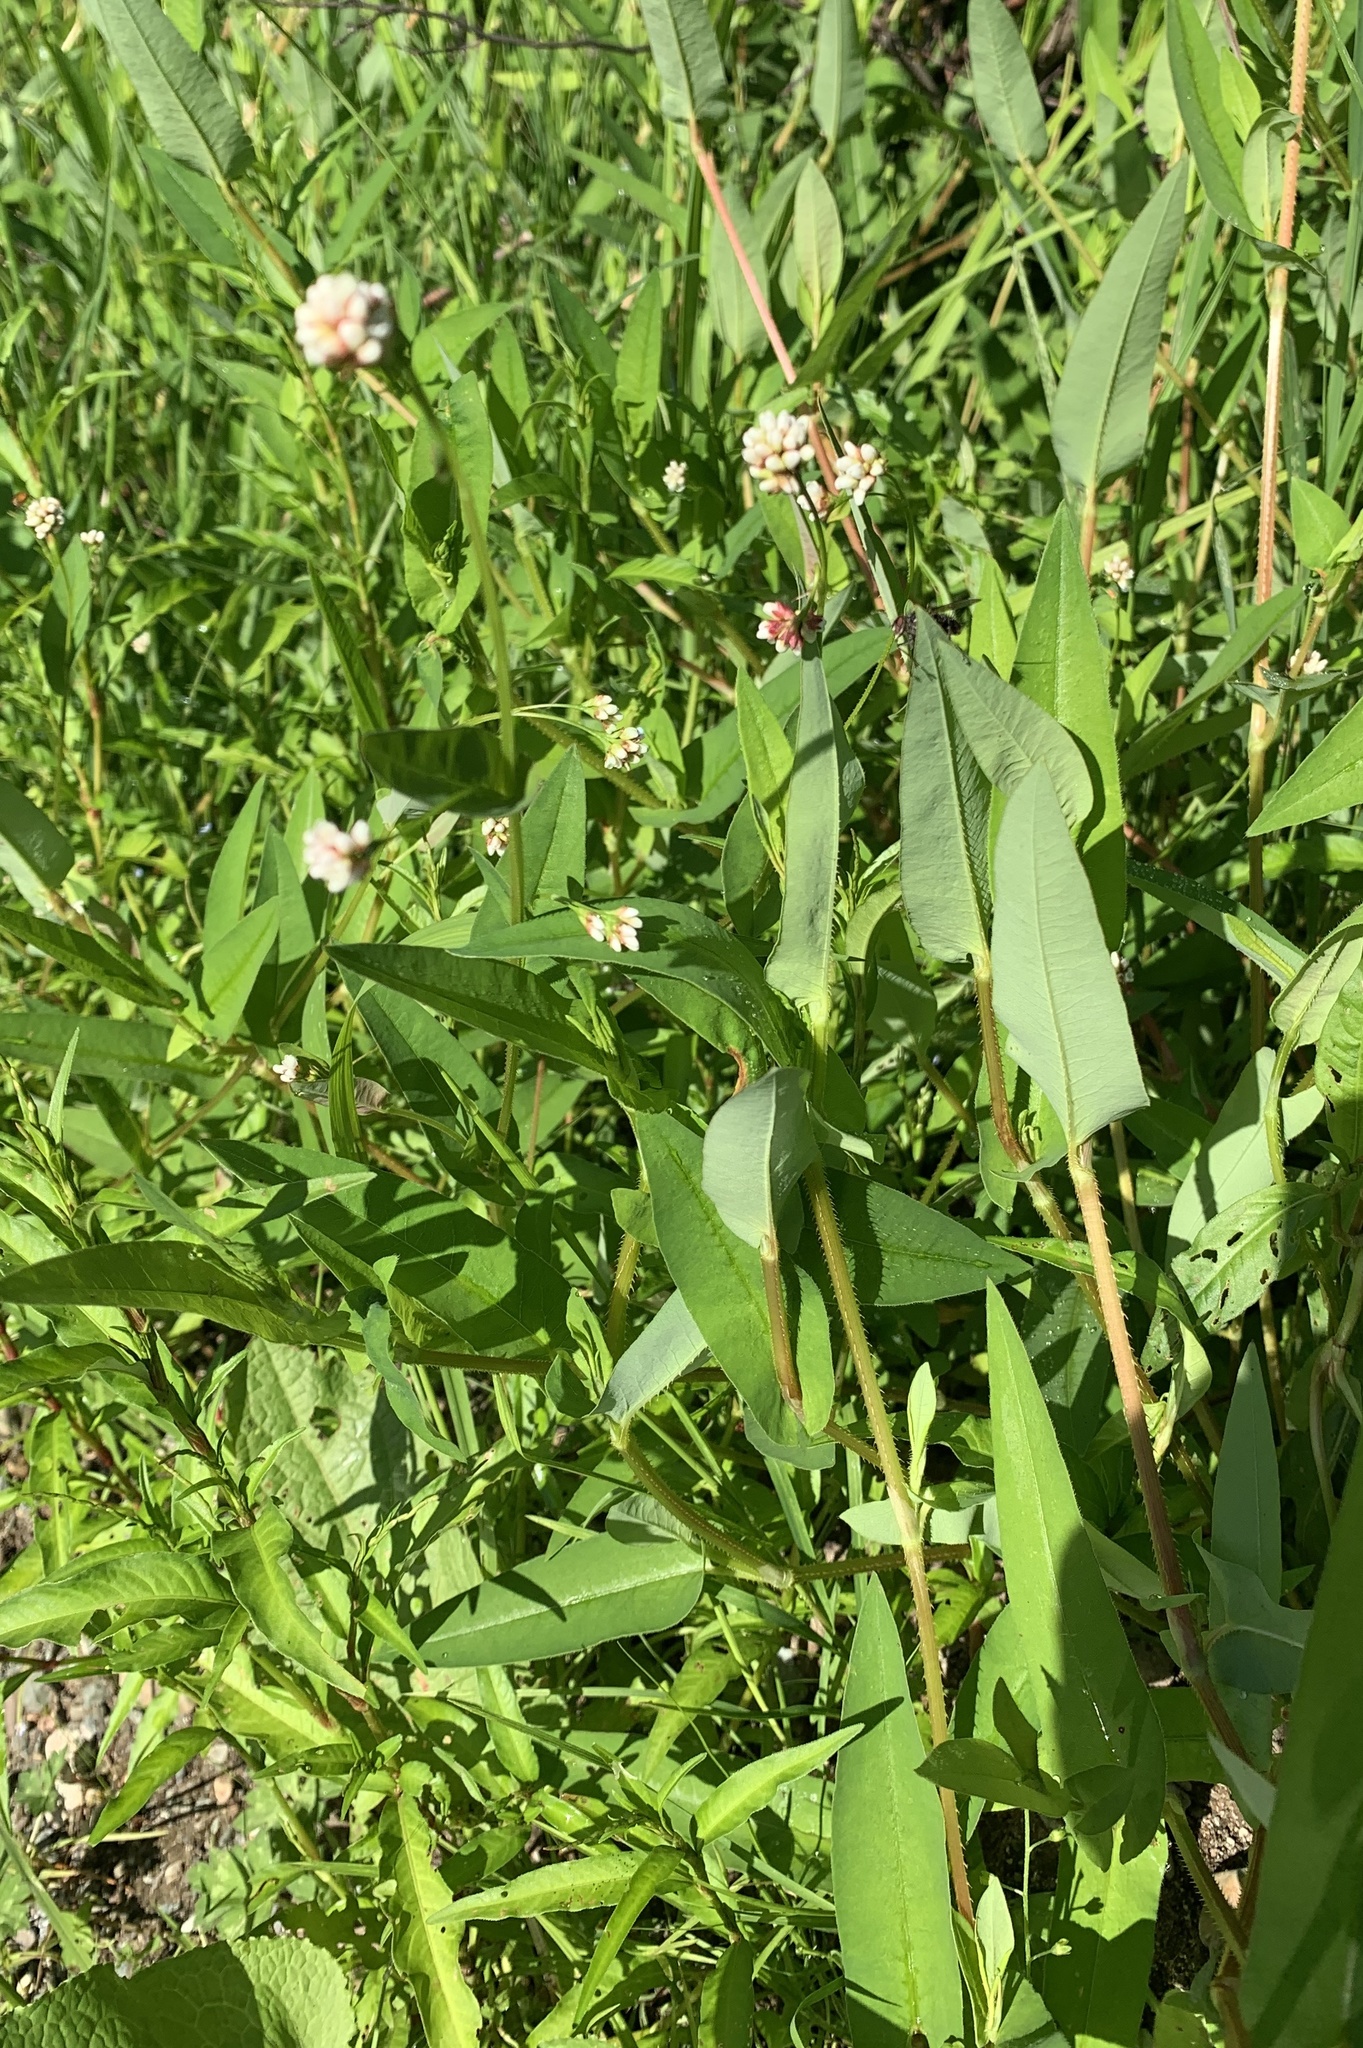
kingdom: Plantae
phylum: Tracheophyta
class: Magnoliopsida
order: Caryophyllales
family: Polygonaceae
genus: Persicaria
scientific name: Persicaria sagittata
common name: American tearthumb
